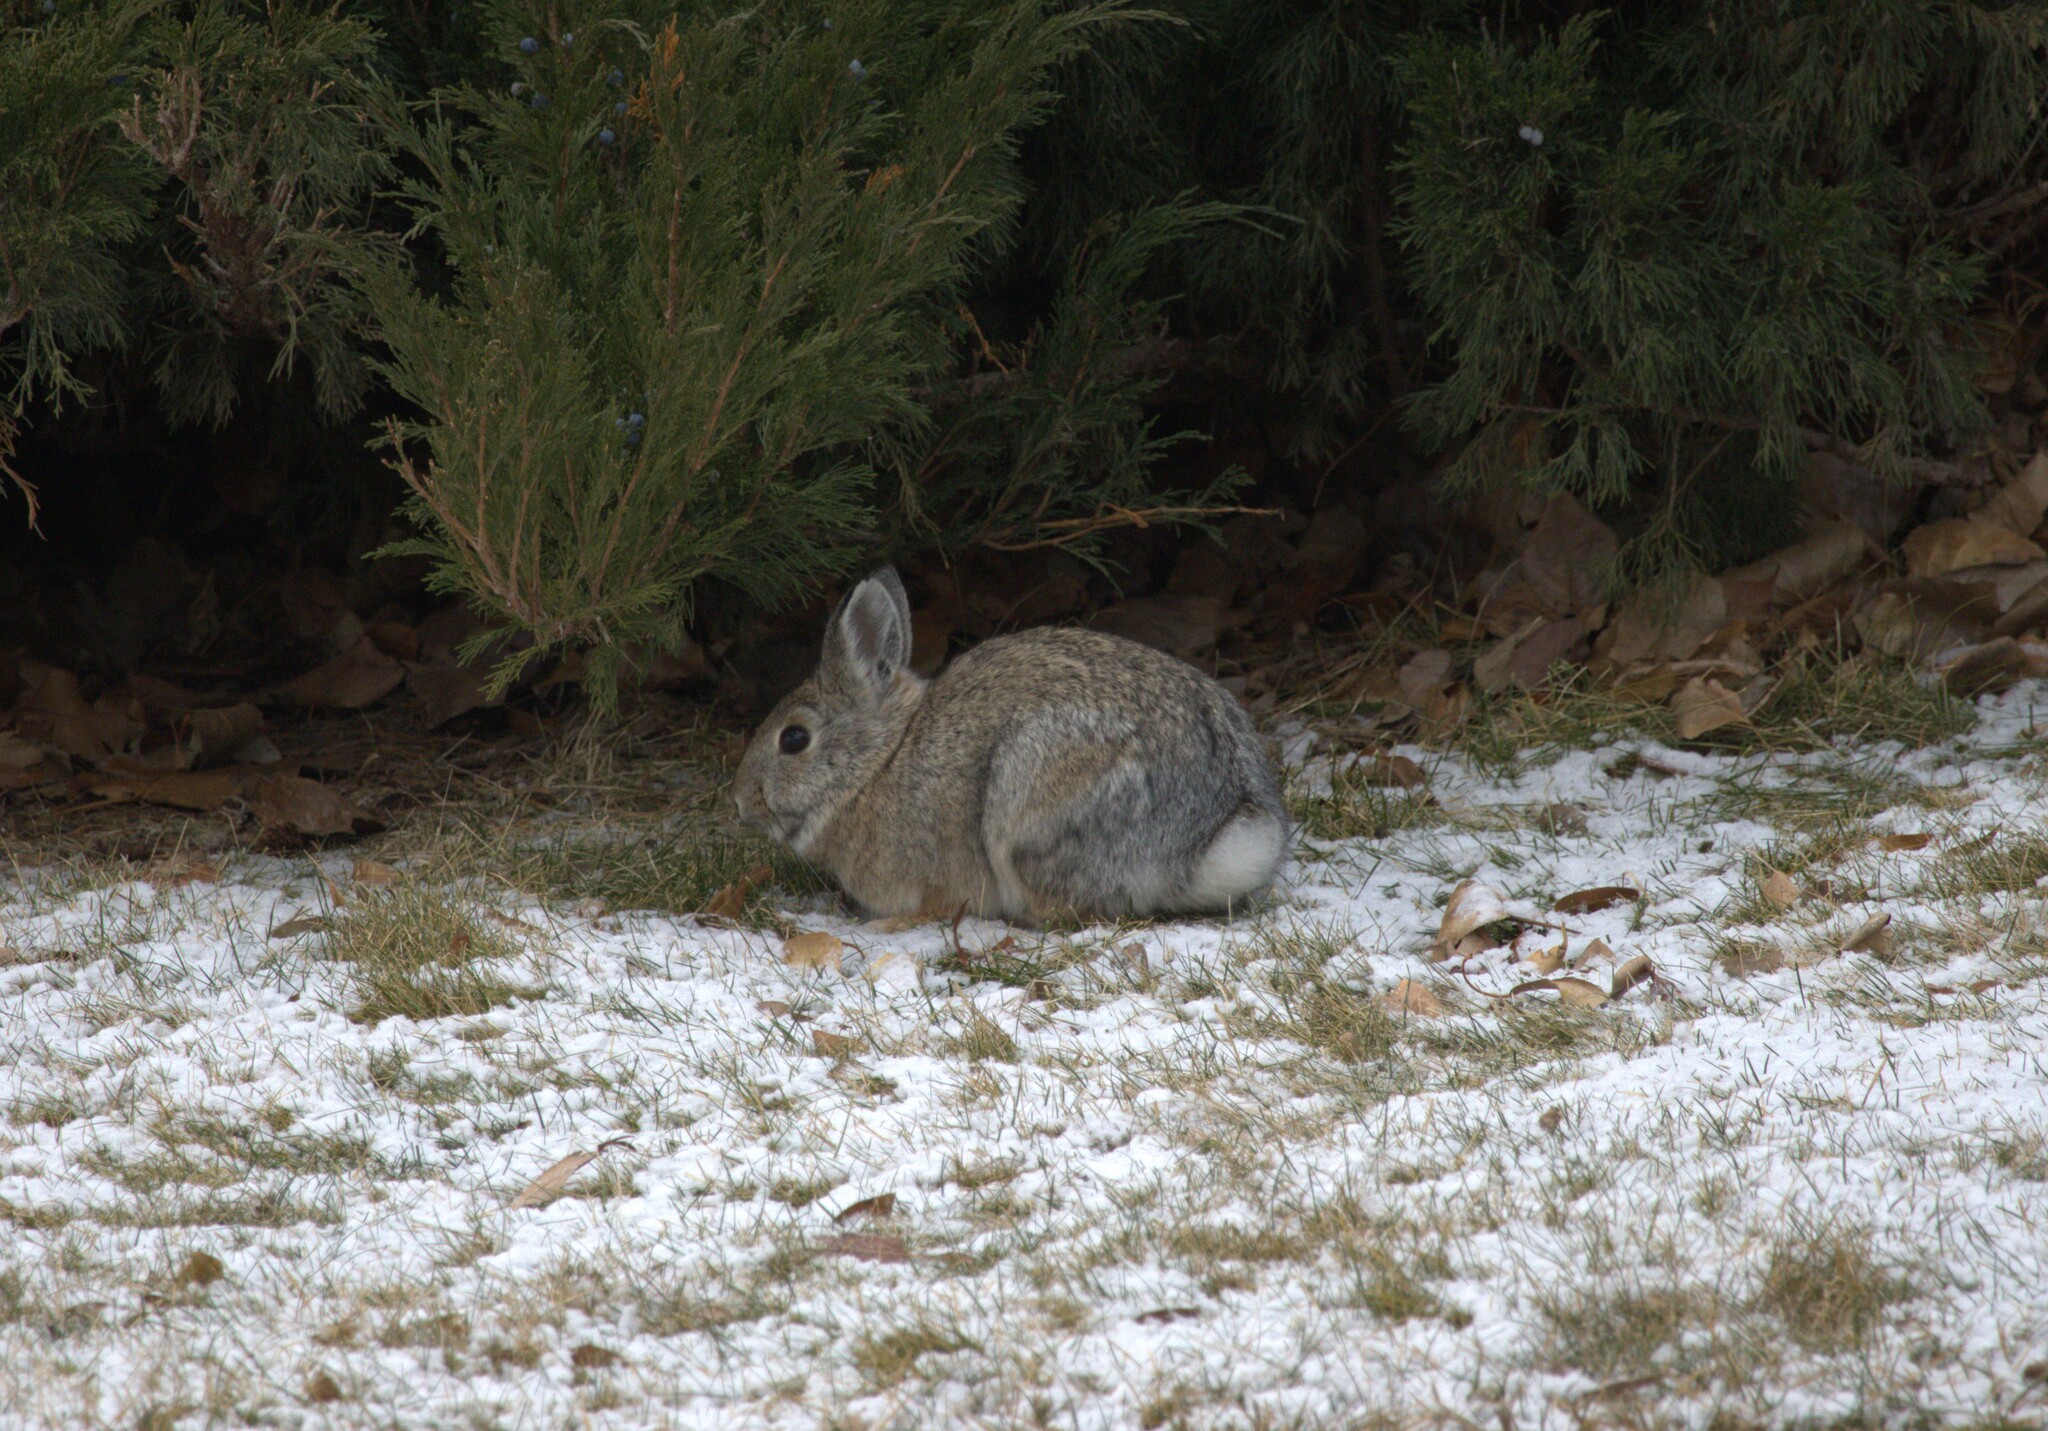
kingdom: Animalia
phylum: Chordata
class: Mammalia
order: Lagomorpha
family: Leporidae
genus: Sylvilagus
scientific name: Sylvilagus nuttallii
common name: Mountain cottontail
